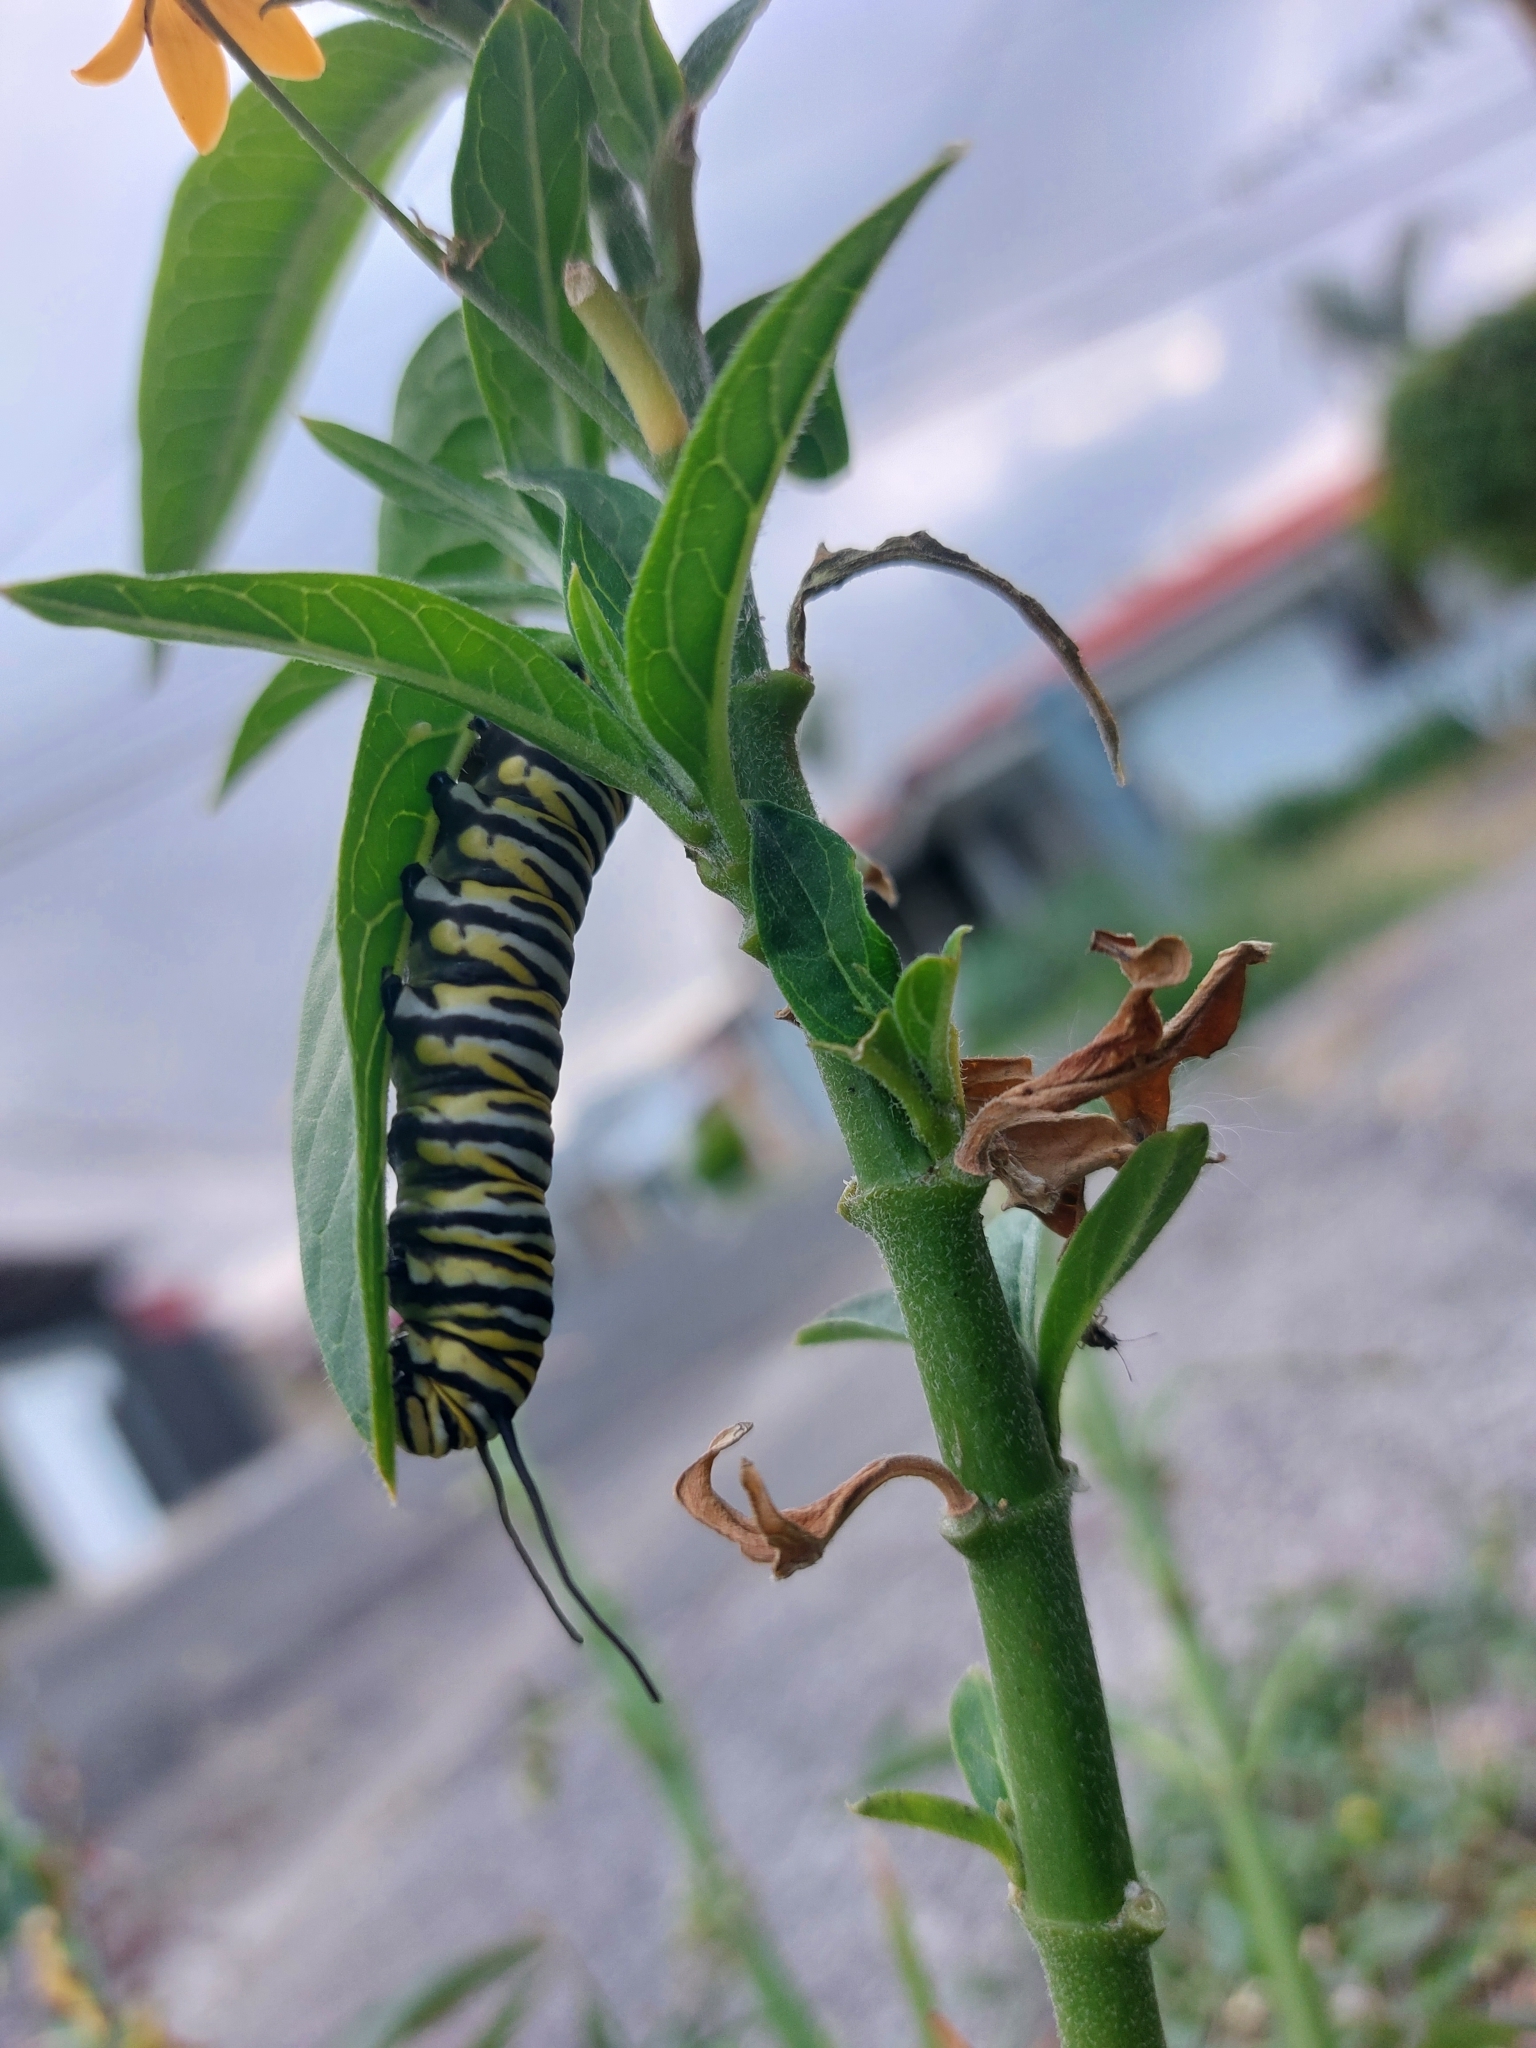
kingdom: Animalia
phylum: Arthropoda
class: Insecta
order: Lepidoptera
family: Nymphalidae
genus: Danaus
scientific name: Danaus plexippus
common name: Monarch
